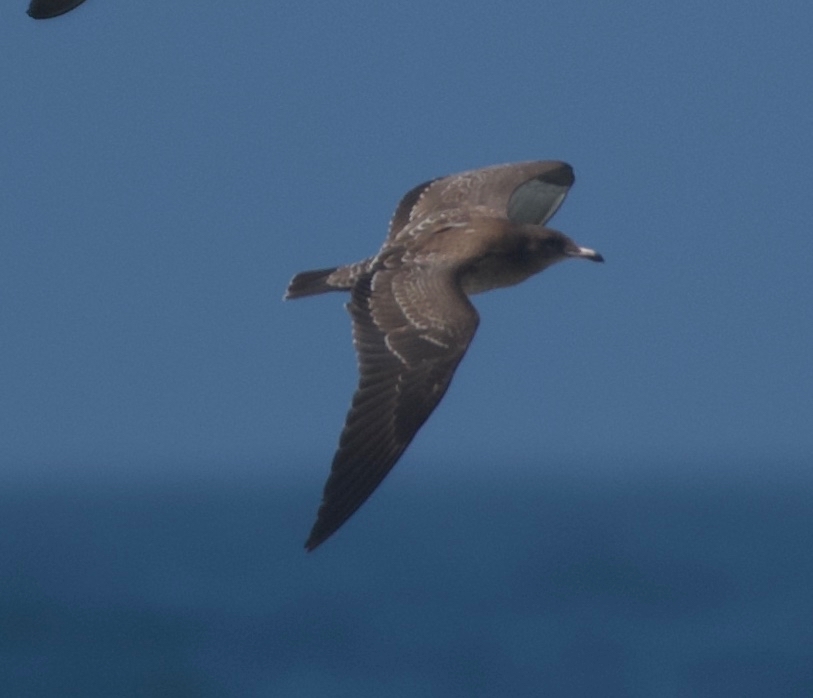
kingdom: Animalia
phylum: Chordata
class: Aves
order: Charadriiformes
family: Laridae
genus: Larus
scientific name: Larus heermanni
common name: Heermann's gull
